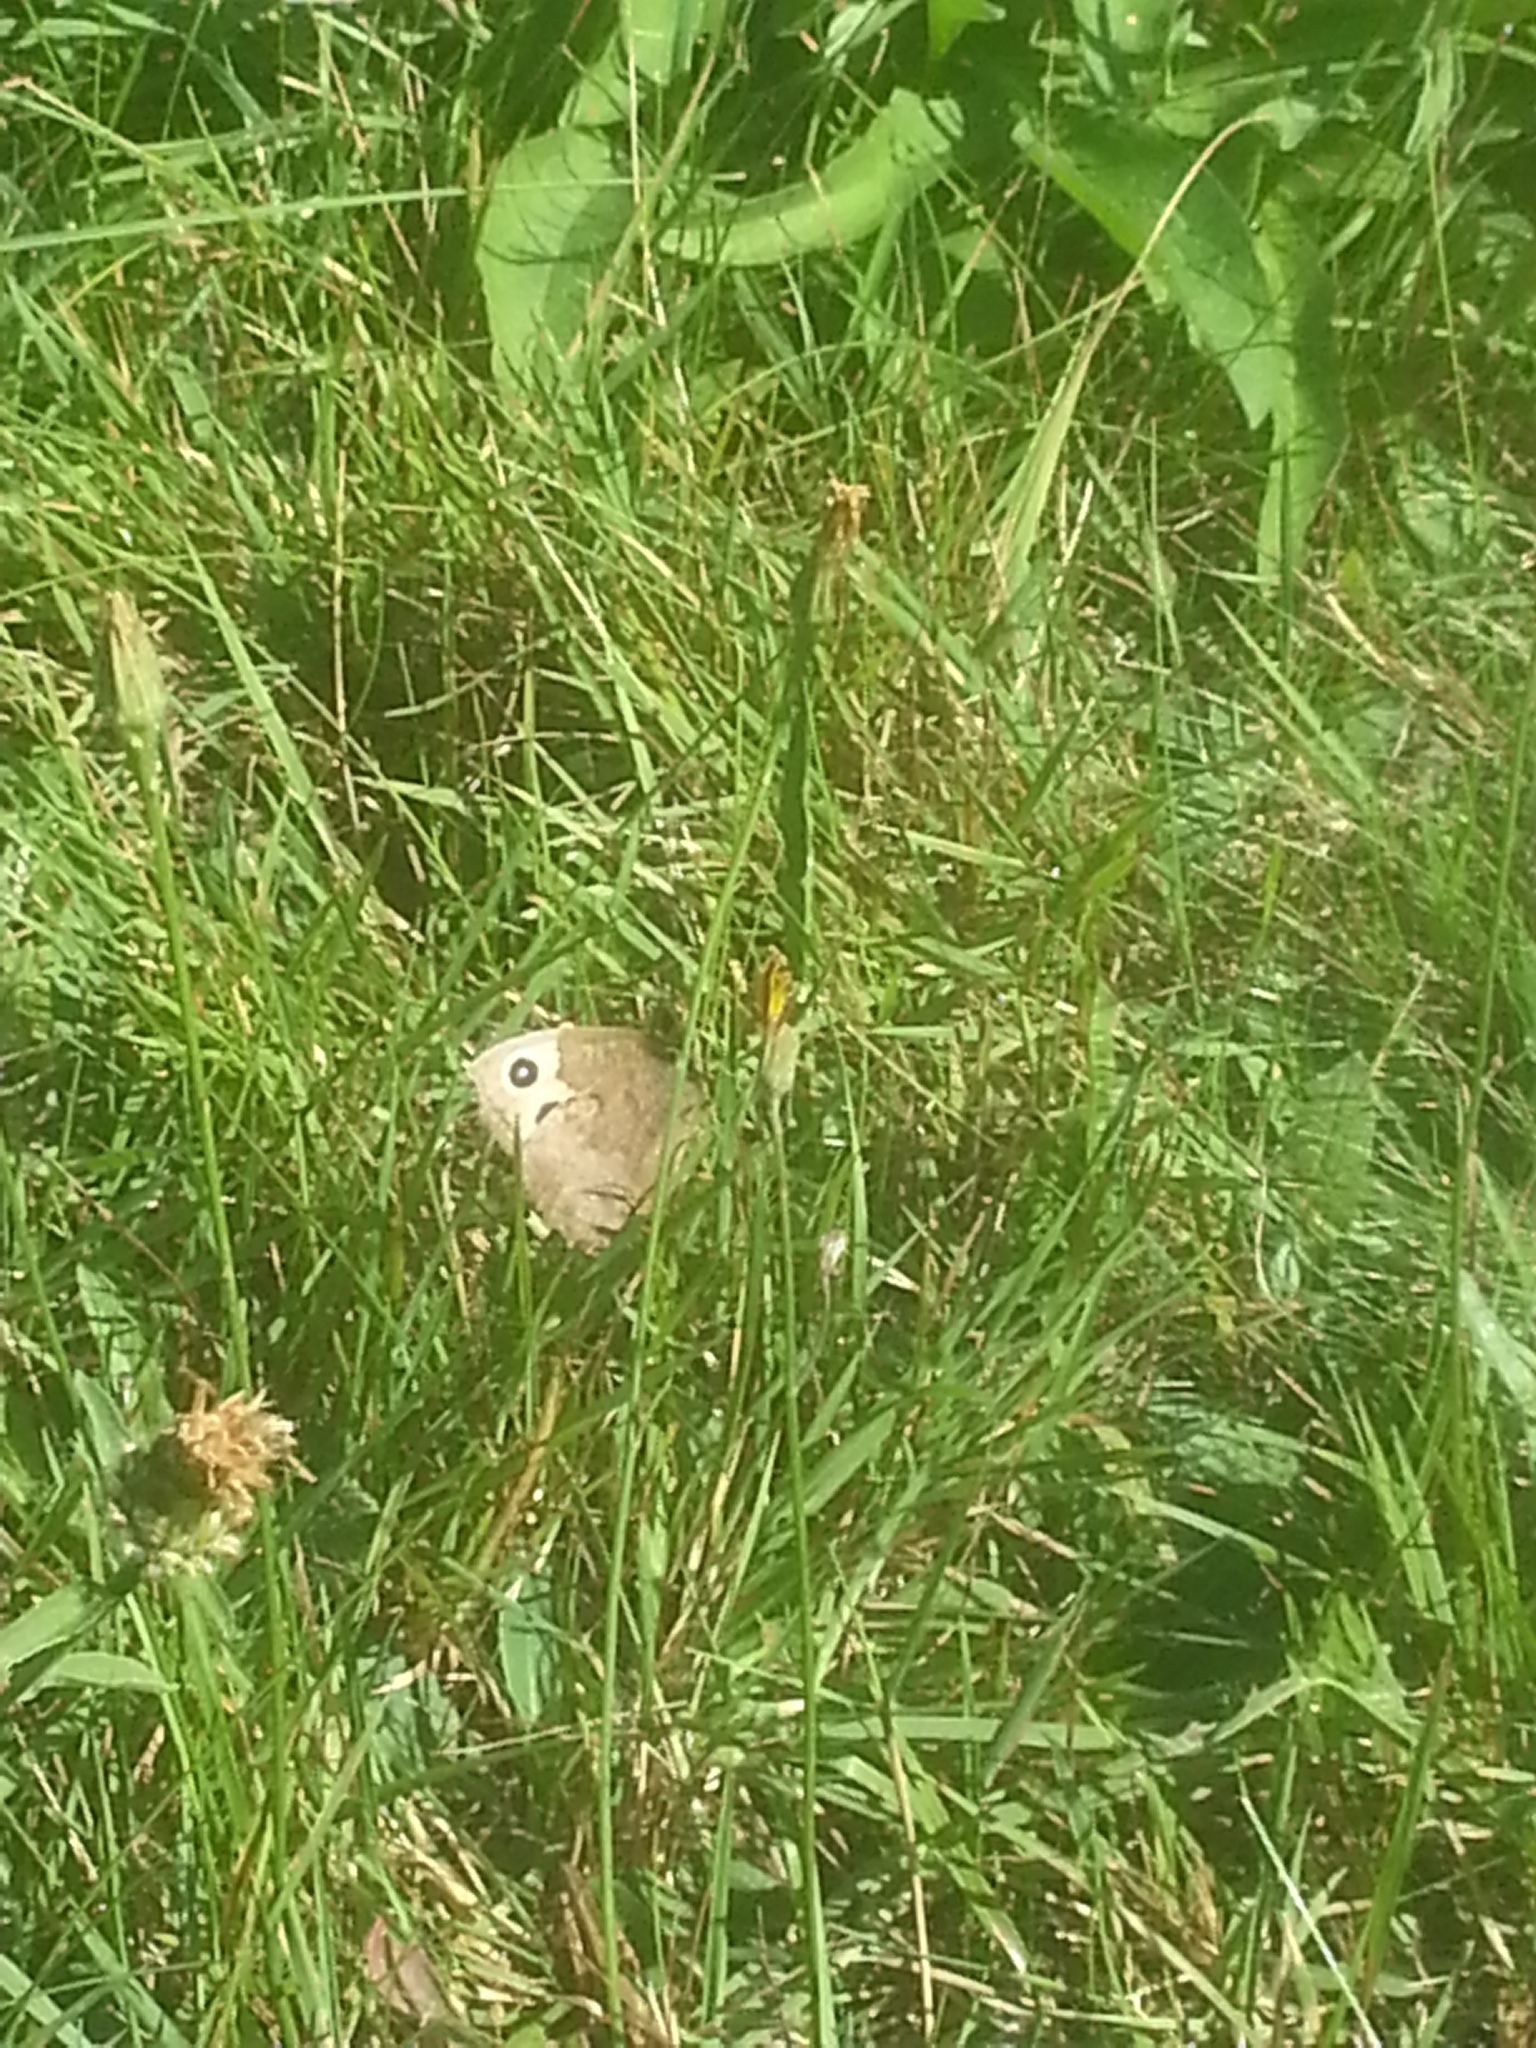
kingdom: Animalia
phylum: Arthropoda
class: Insecta
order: Lepidoptera
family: Nymphalidae
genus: Cercyonis
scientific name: Cercyonis pegala
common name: Common wood-nymph
